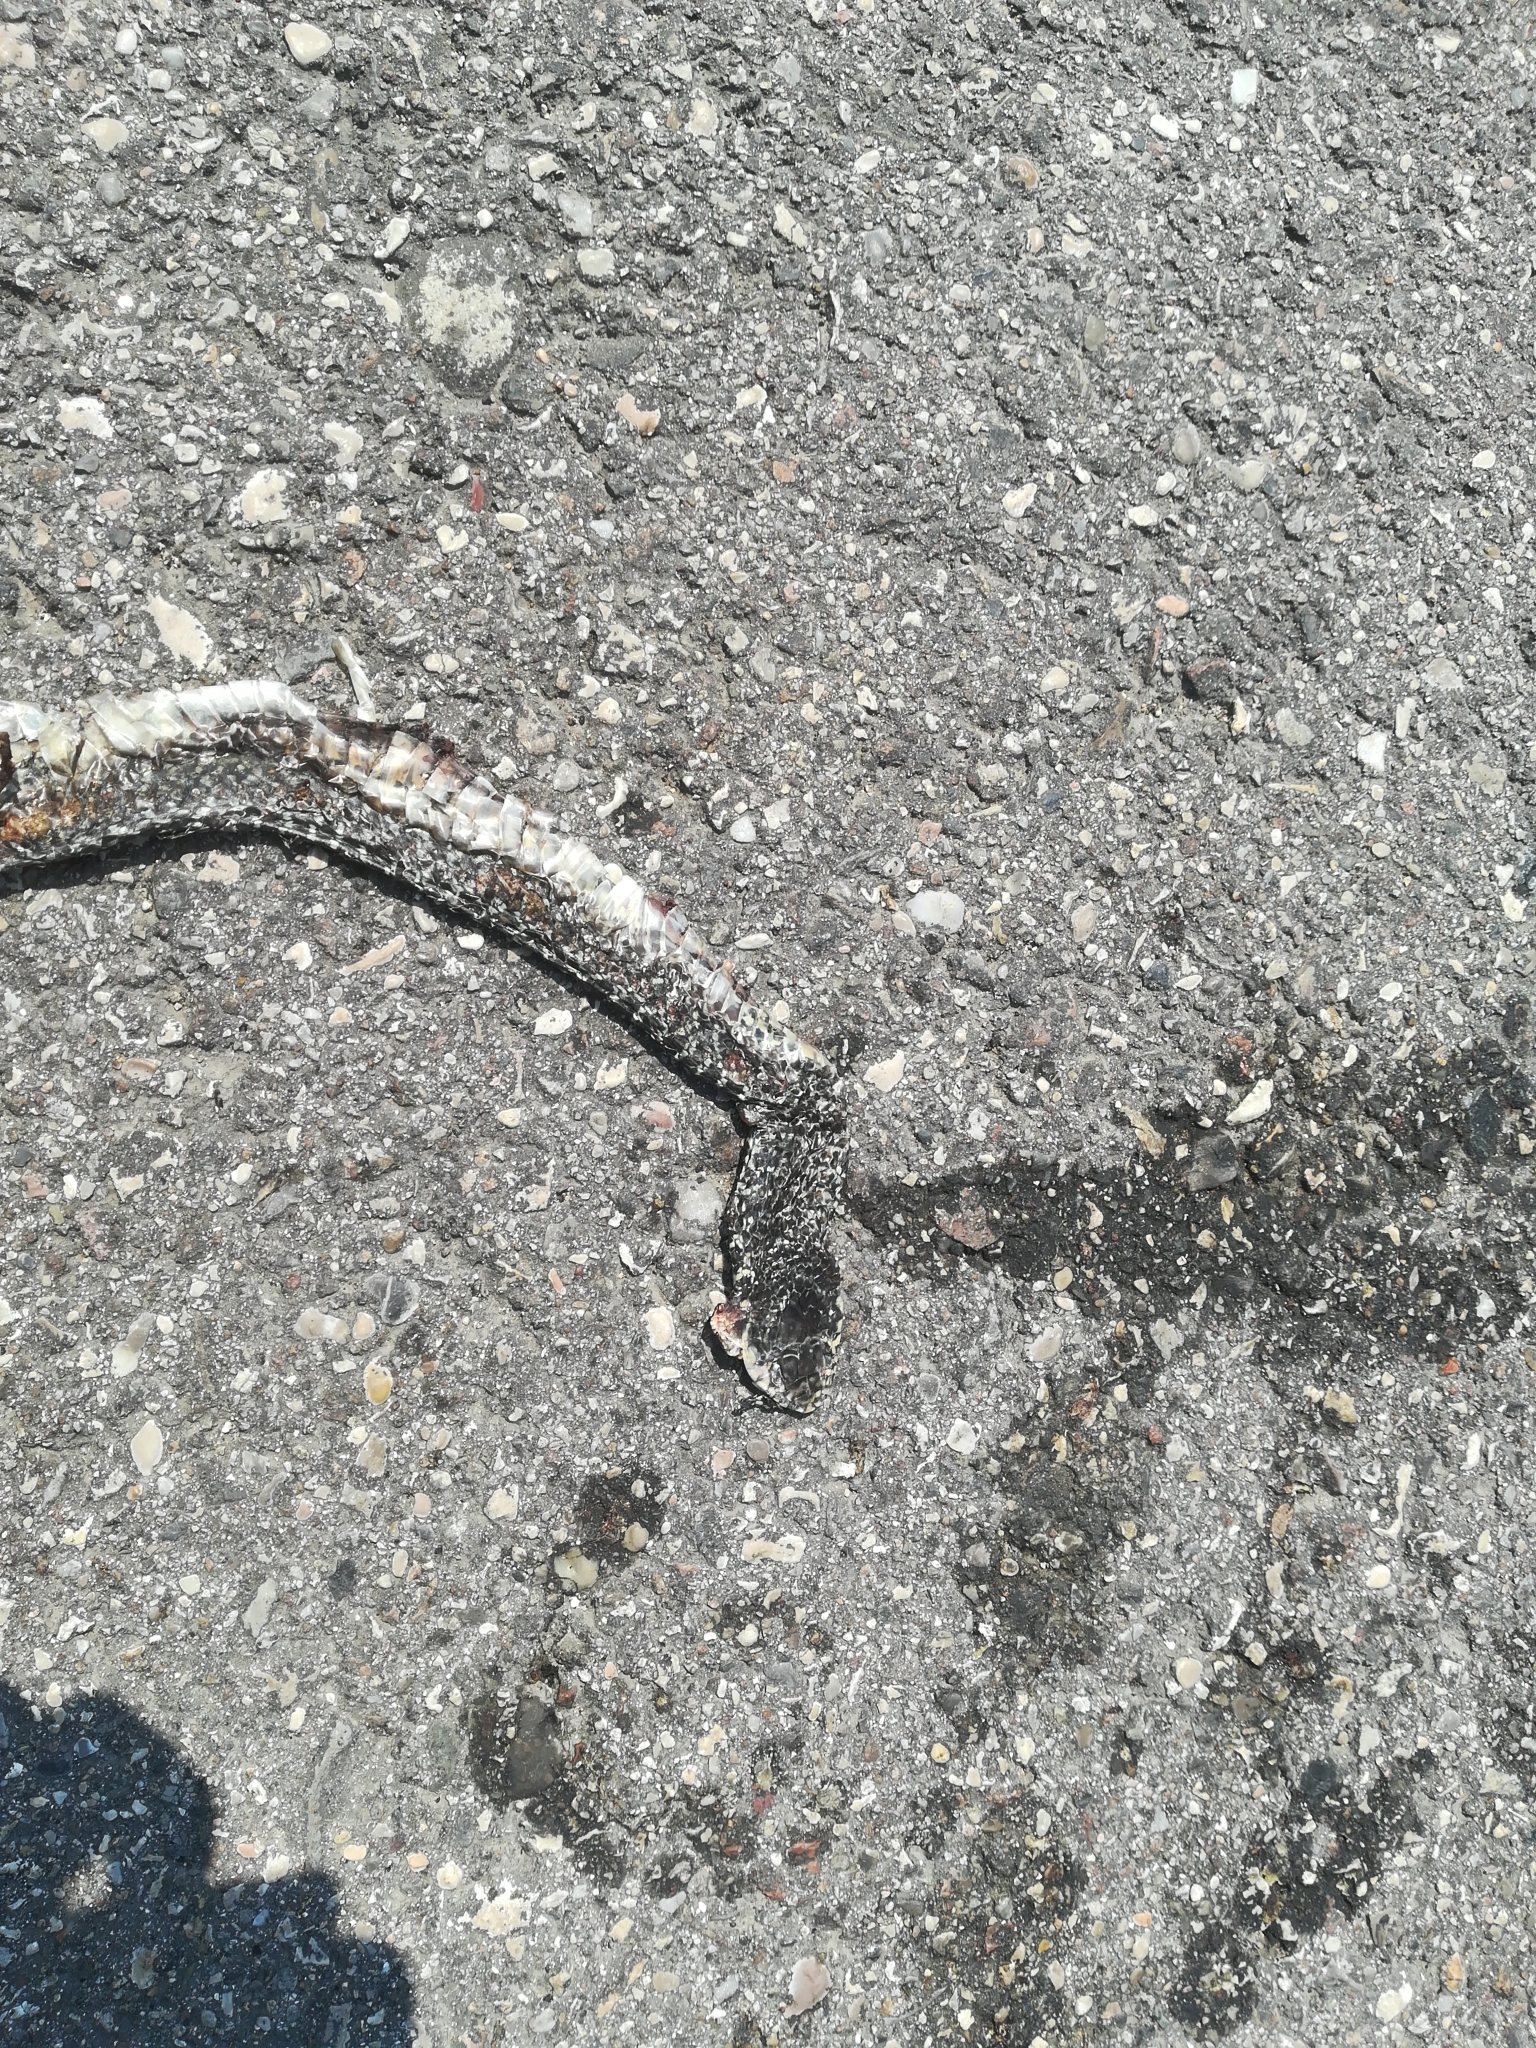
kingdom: Animalia
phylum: Chordata
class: Squamata
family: Colubridae
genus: Hierophis
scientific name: Hierophis viridiflavus
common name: Green whip snake
